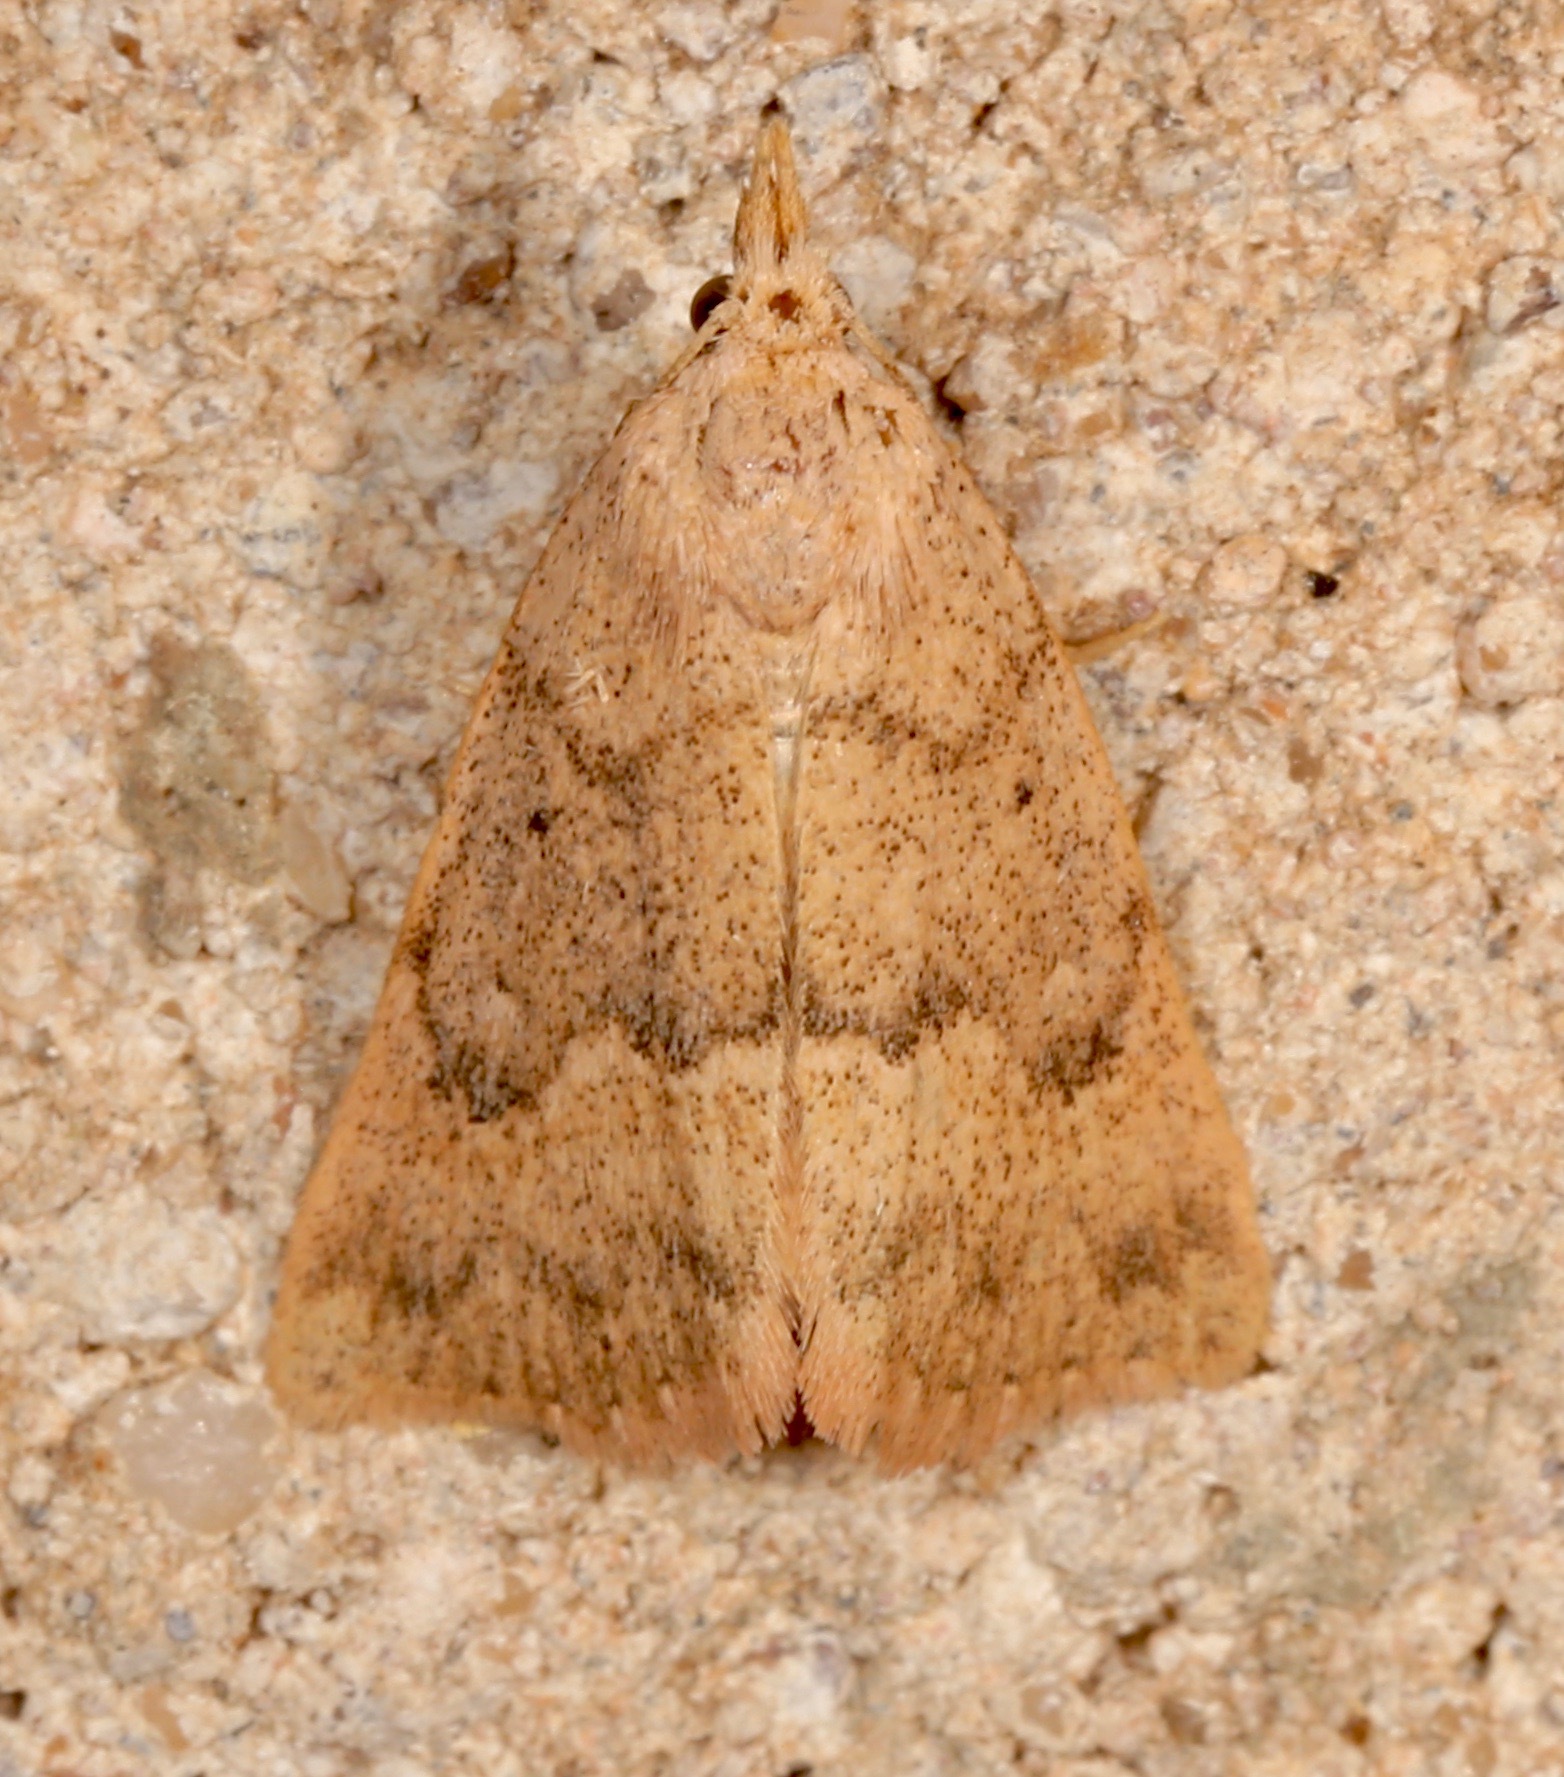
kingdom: Animalia
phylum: Arthropoda
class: Insecta
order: Lepidoptera
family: Erebidae
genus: Pseudorgyia
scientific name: Pseudorgyia russula
